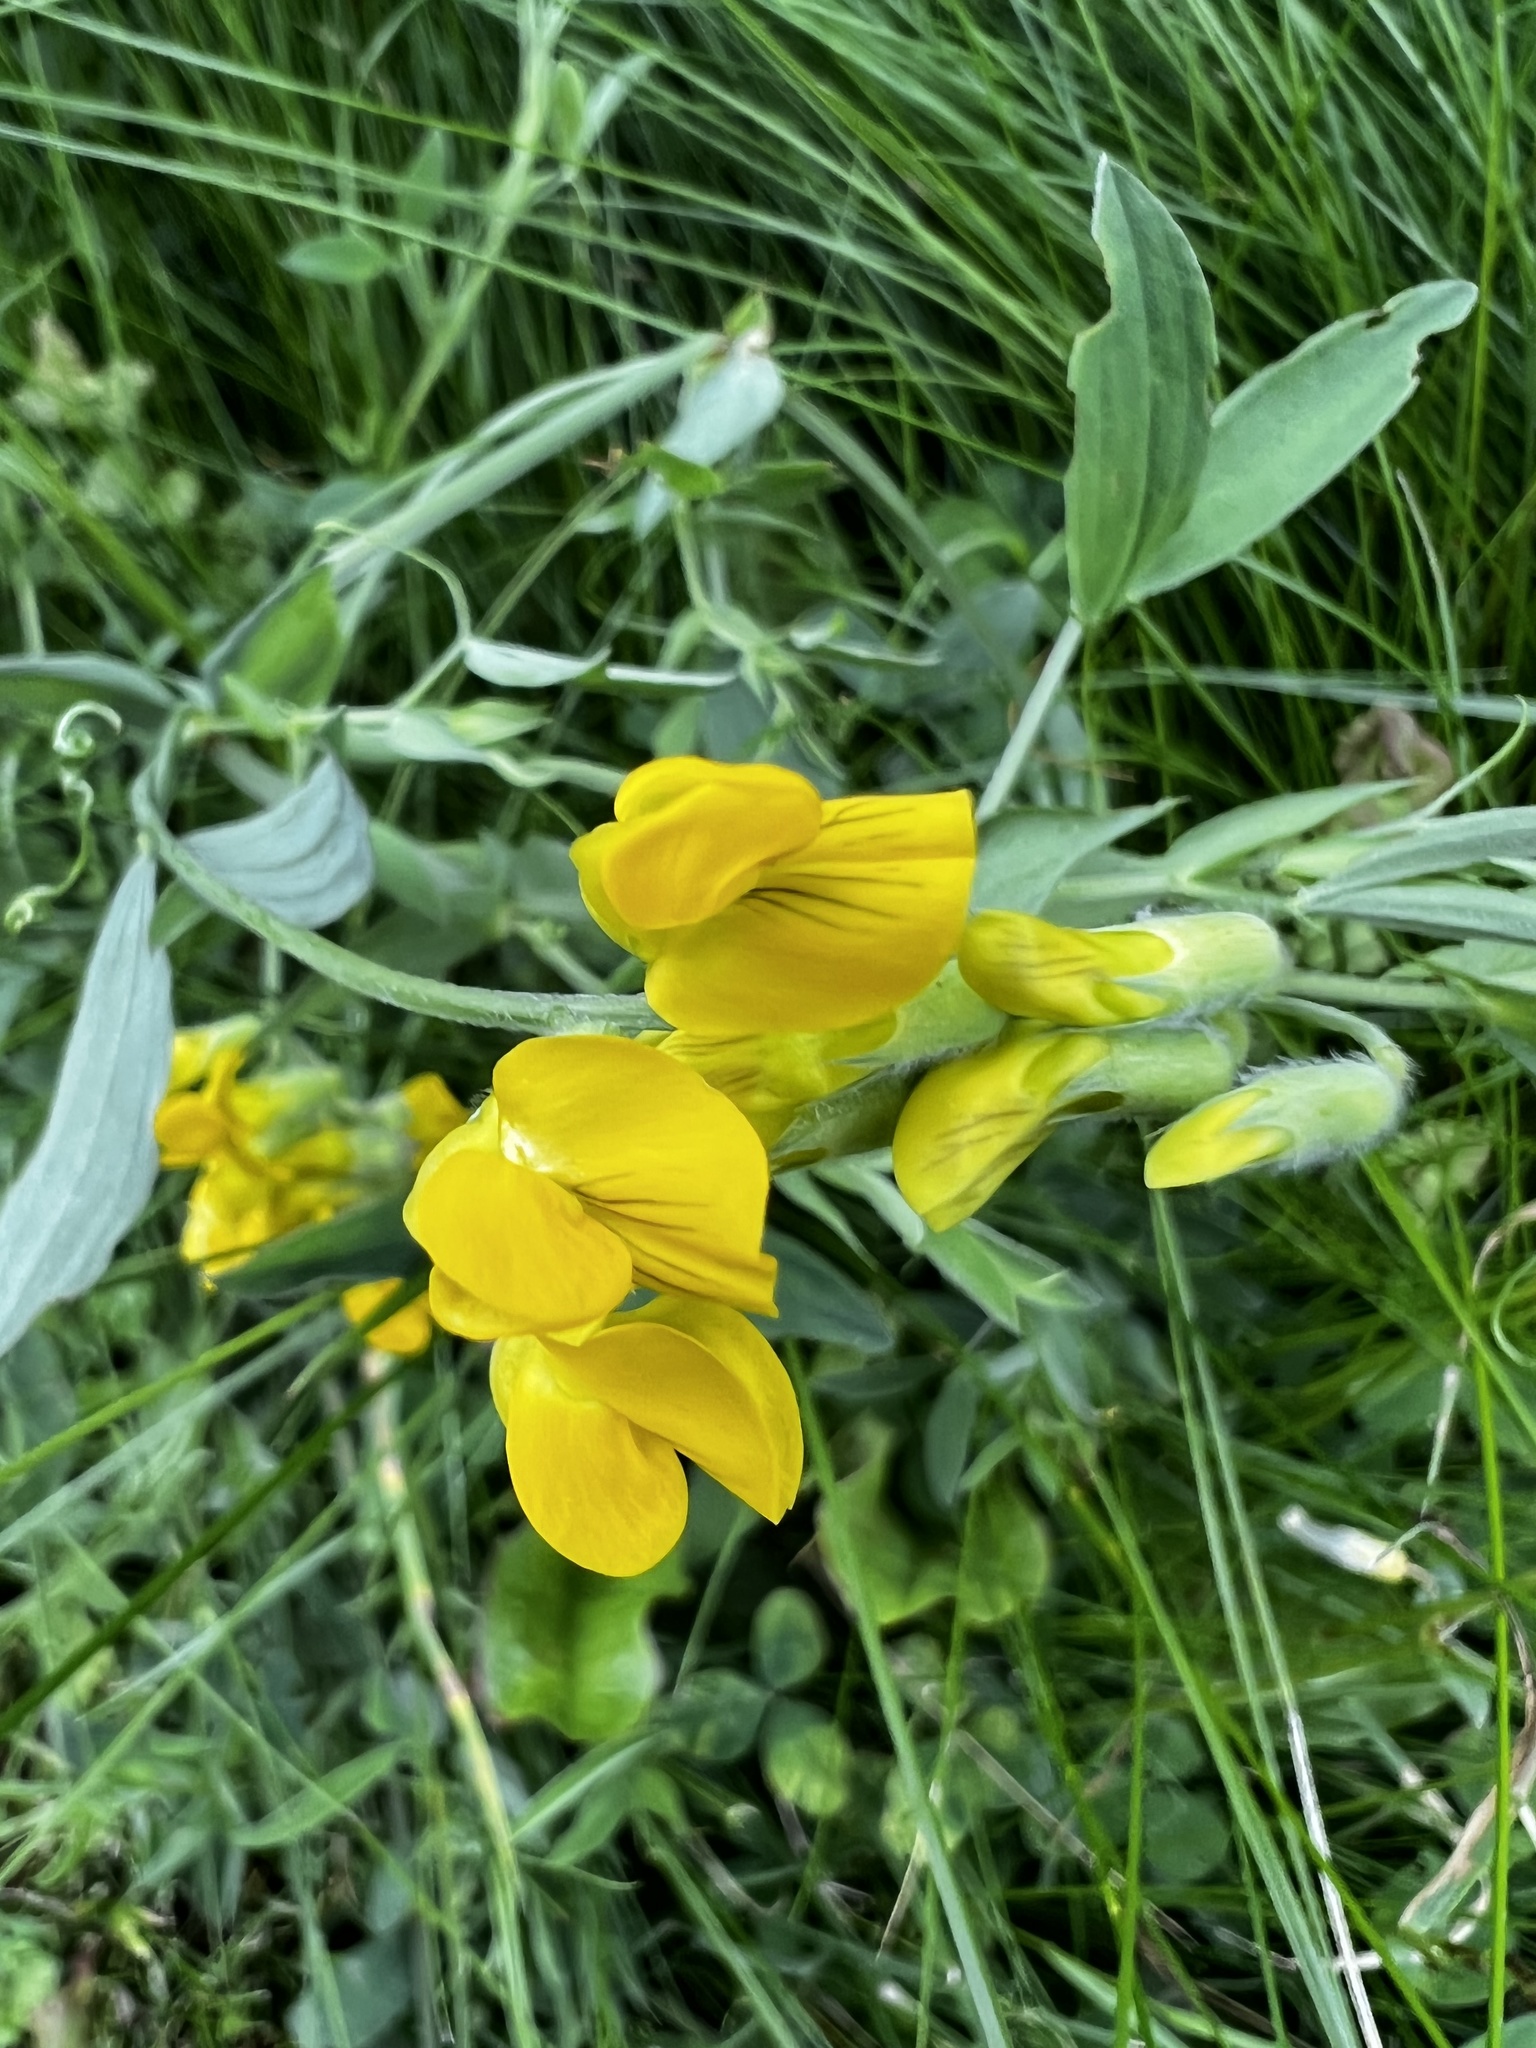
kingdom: Plantae
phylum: Tracheophyta
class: Magnoliopsida
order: Fabales
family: Fabaceae
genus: Lathyrus
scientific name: Lathyrus pratensis
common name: Meadow vetchling
